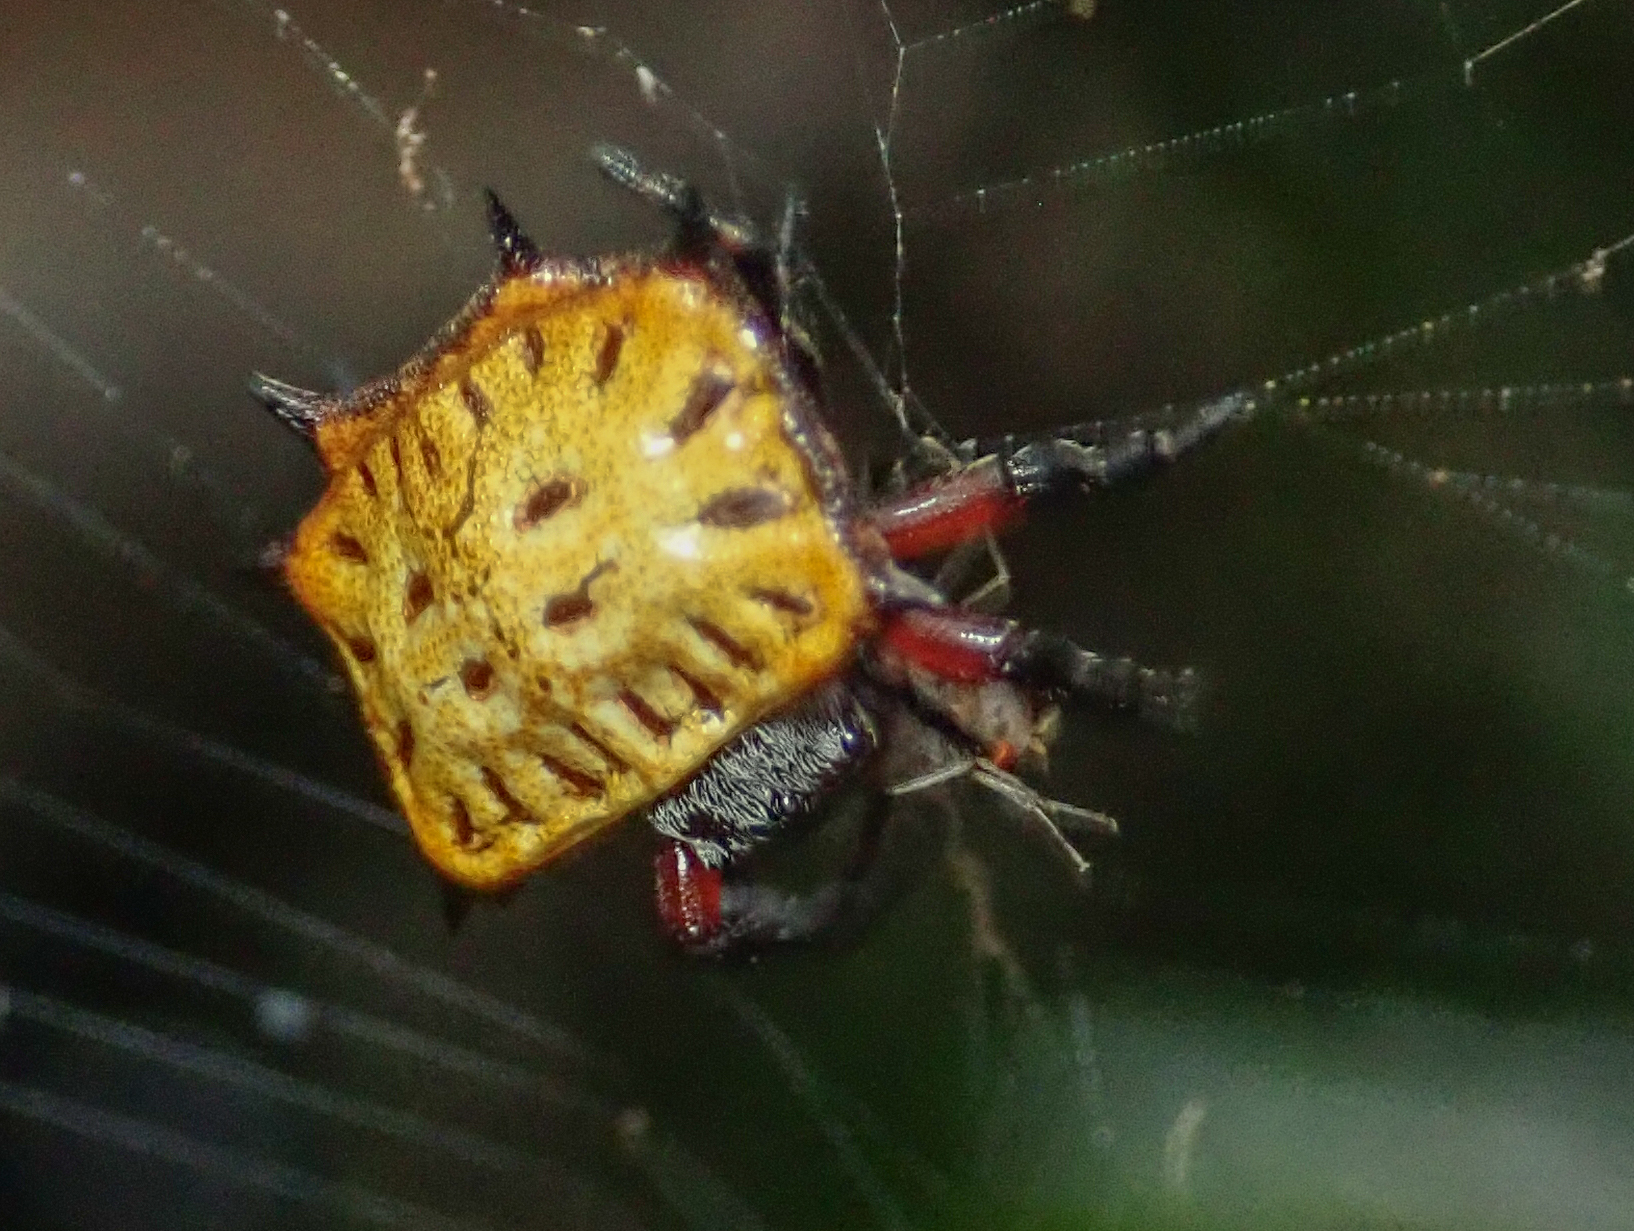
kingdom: Animalia
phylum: Arthropoda
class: Arachnida
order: Araneae
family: Araneidae
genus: Isoxya
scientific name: Isoxya tabulata
